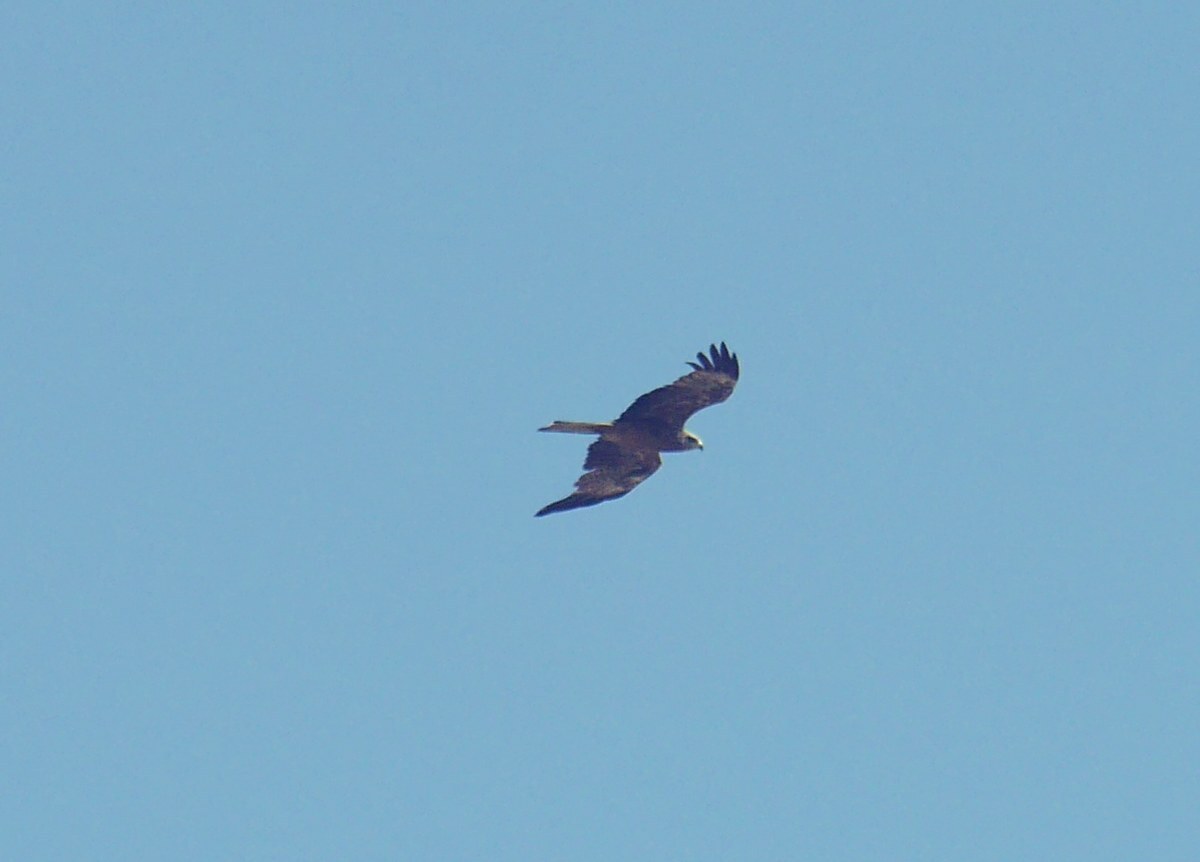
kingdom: Animalia
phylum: Chordata
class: Aves
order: Accipitriformes
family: Accipitridae
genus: Milvus
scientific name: Milvus migrans
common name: Black kite
